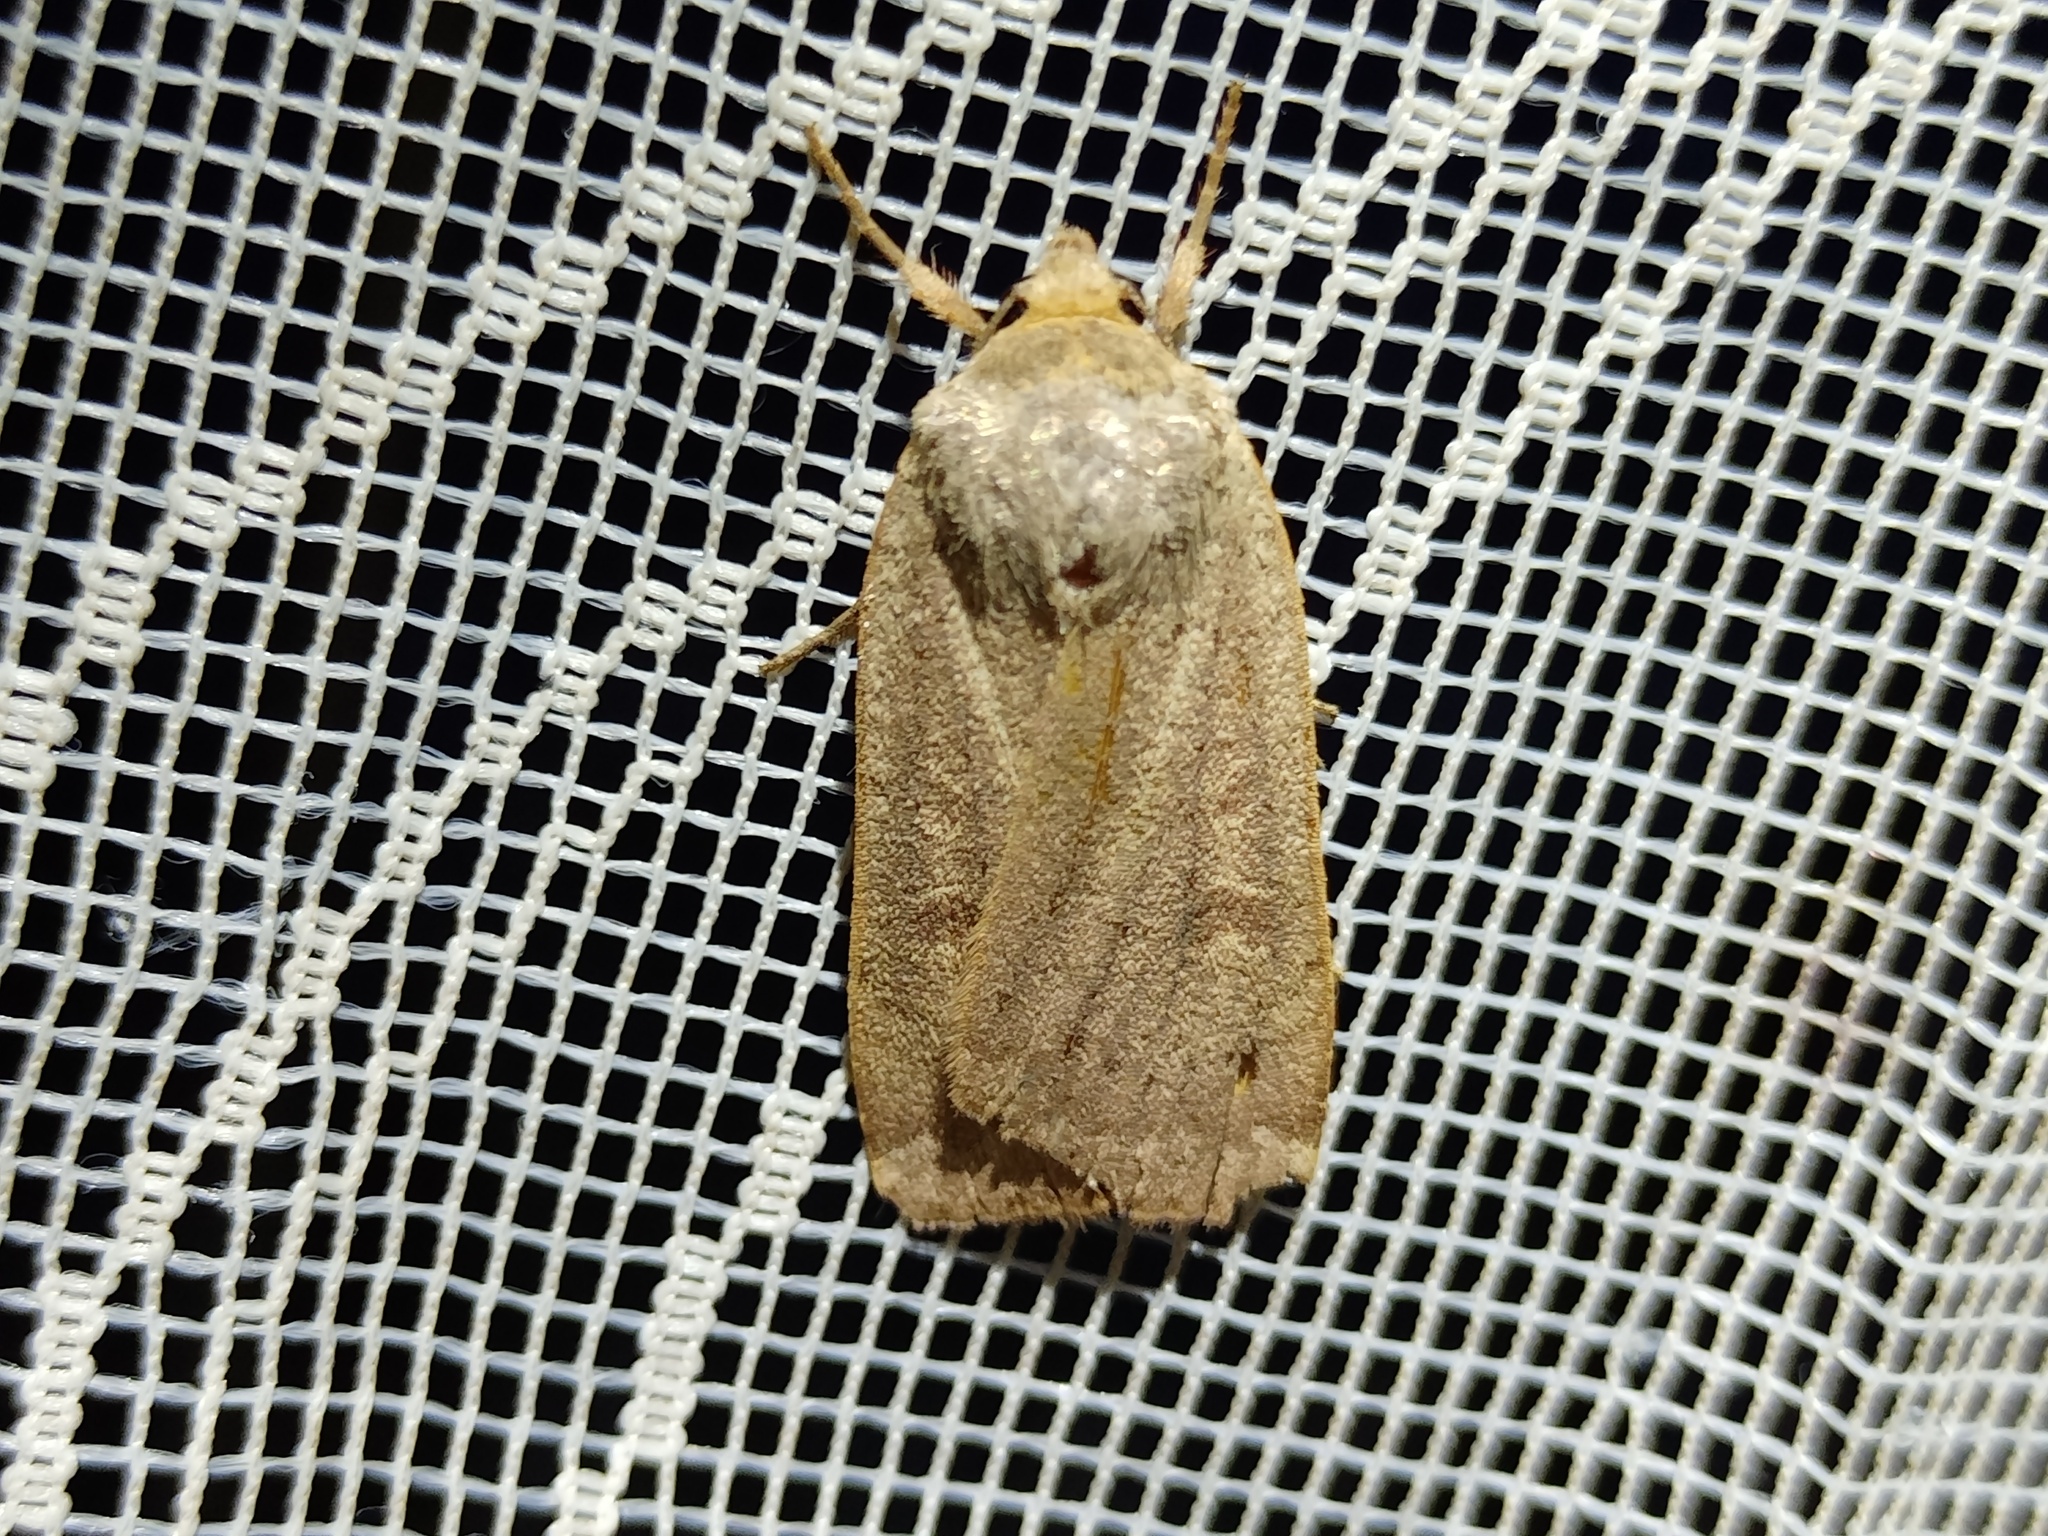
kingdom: Animalia
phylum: Arthropoda
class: Insecta
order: Lepidoptera
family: Noctuidae
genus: Noctua
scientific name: Noctua comes
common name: Lesser yellow underwing
